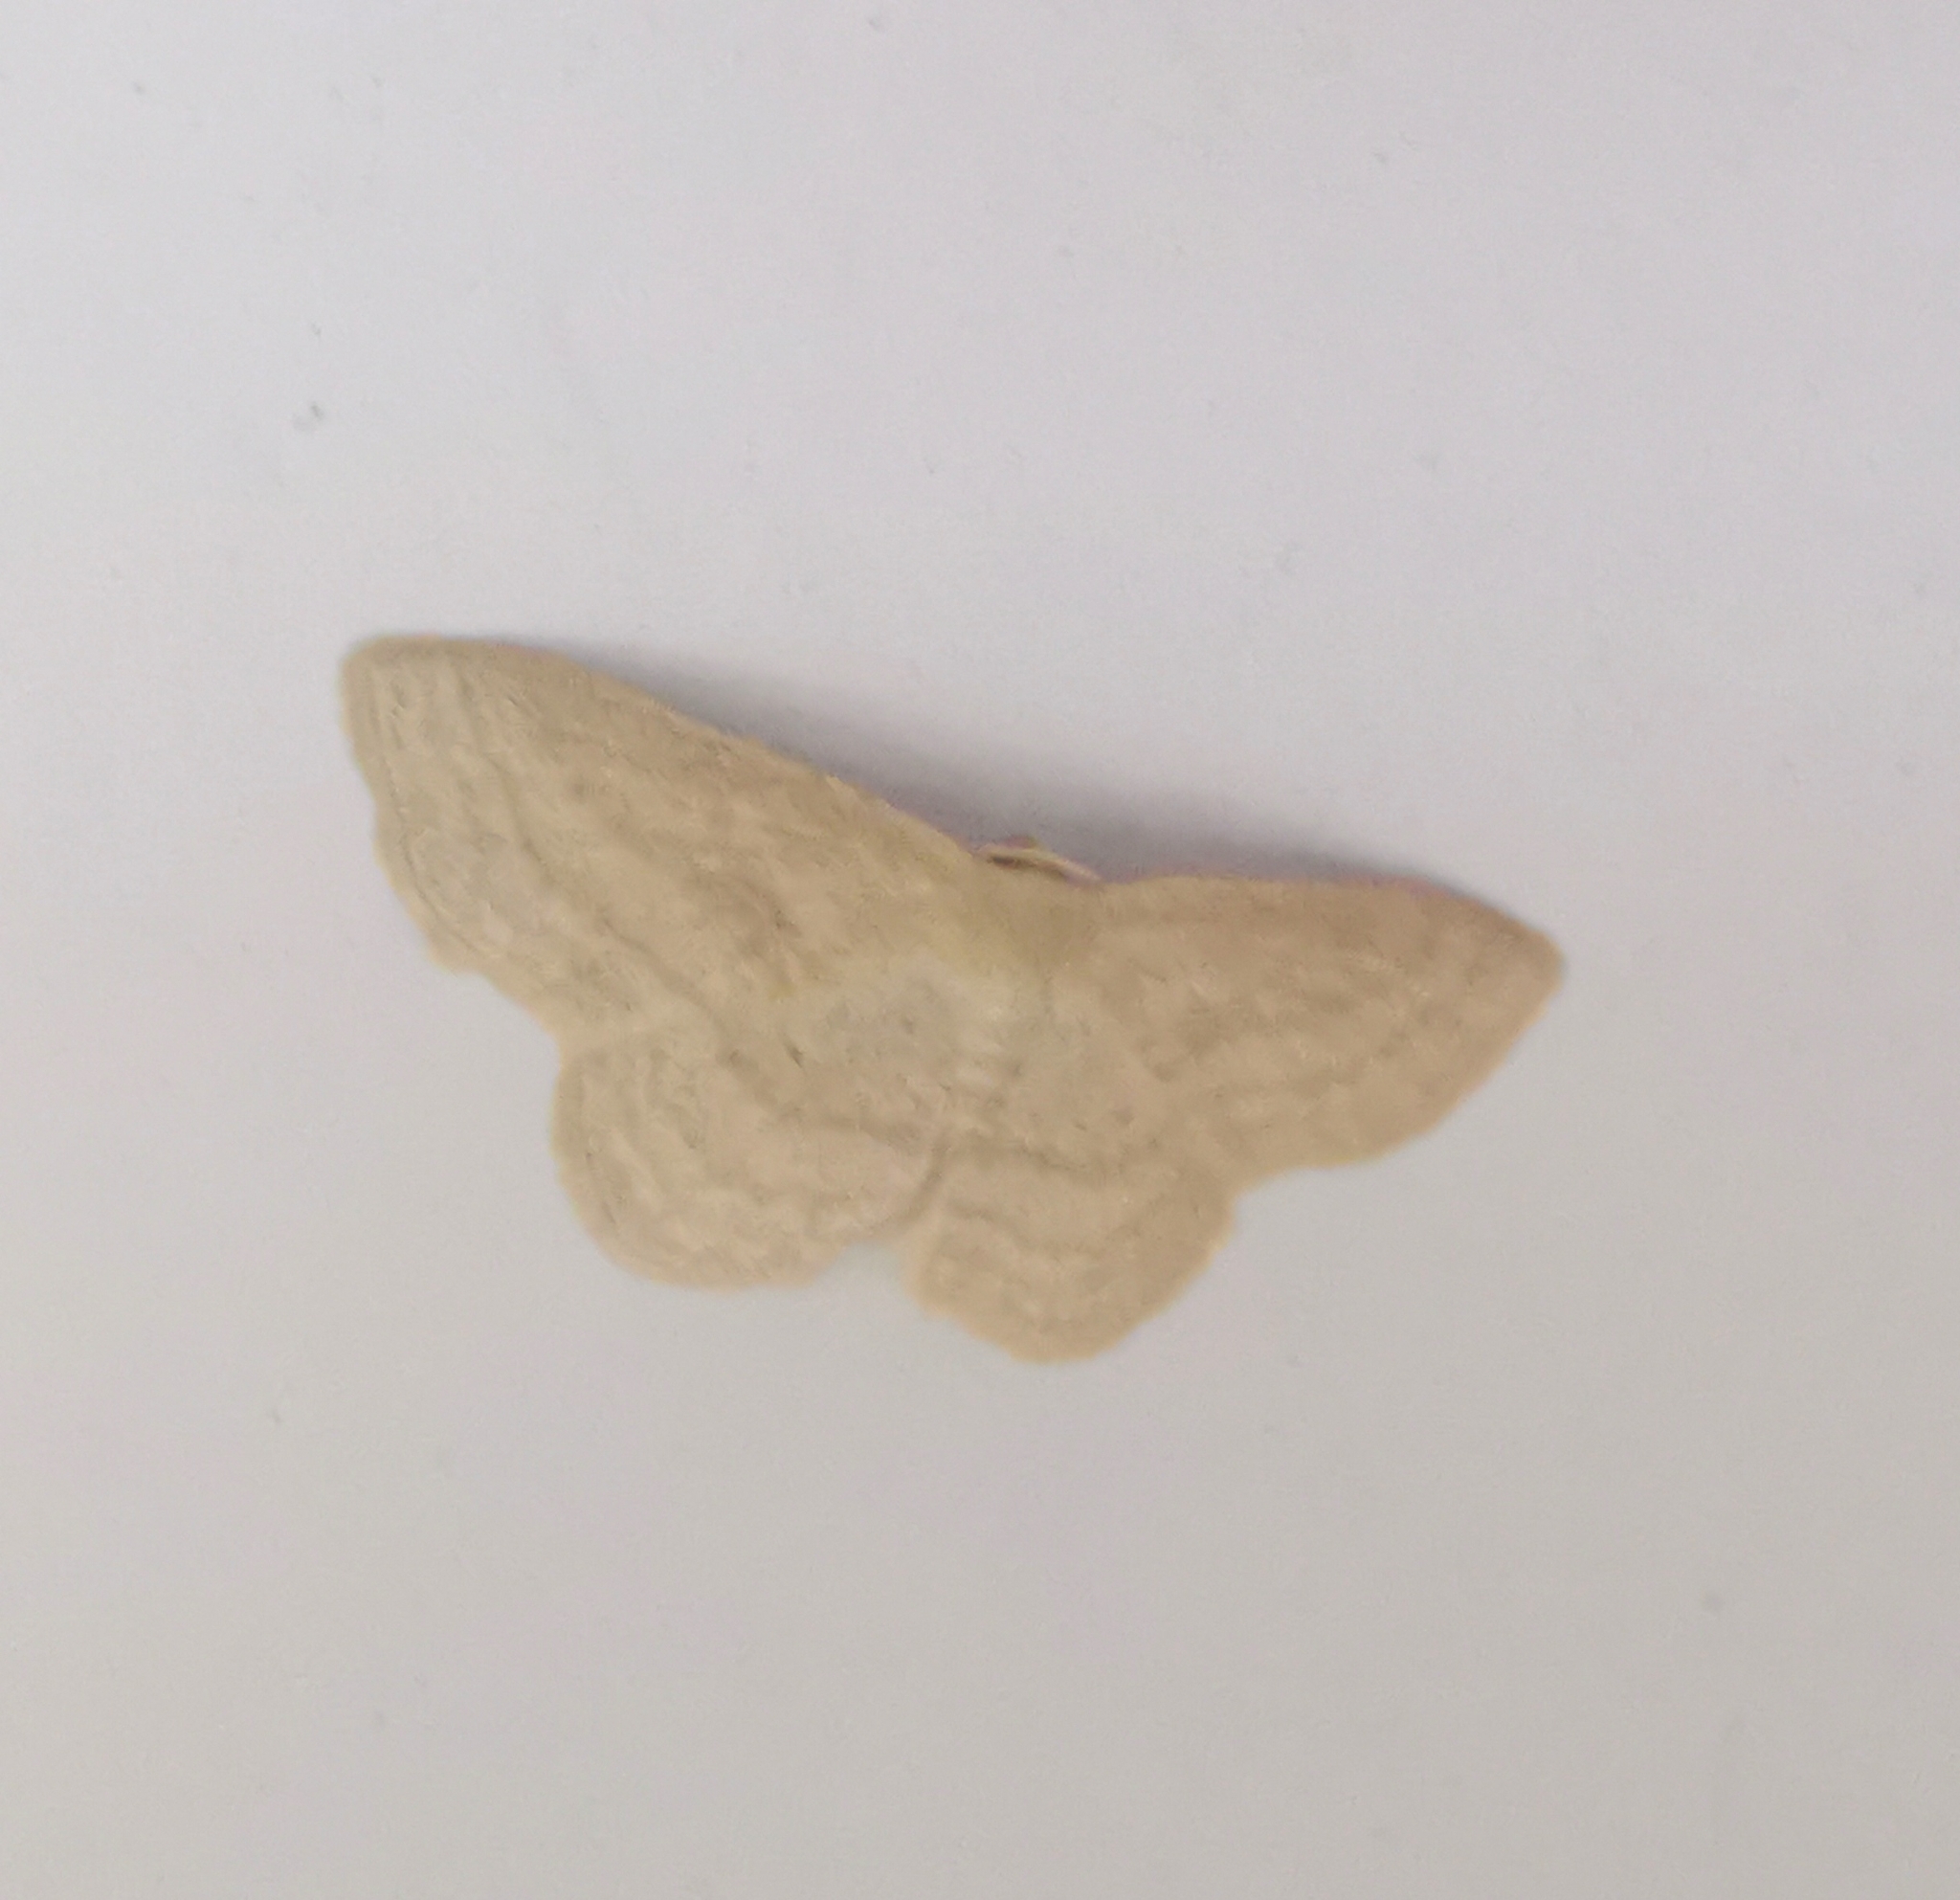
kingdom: Animalia
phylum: Arthropoda
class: Insecta
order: Lepidoptera
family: Geometridae
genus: Scopula
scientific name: Scopula virgulata
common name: Streaked wave
